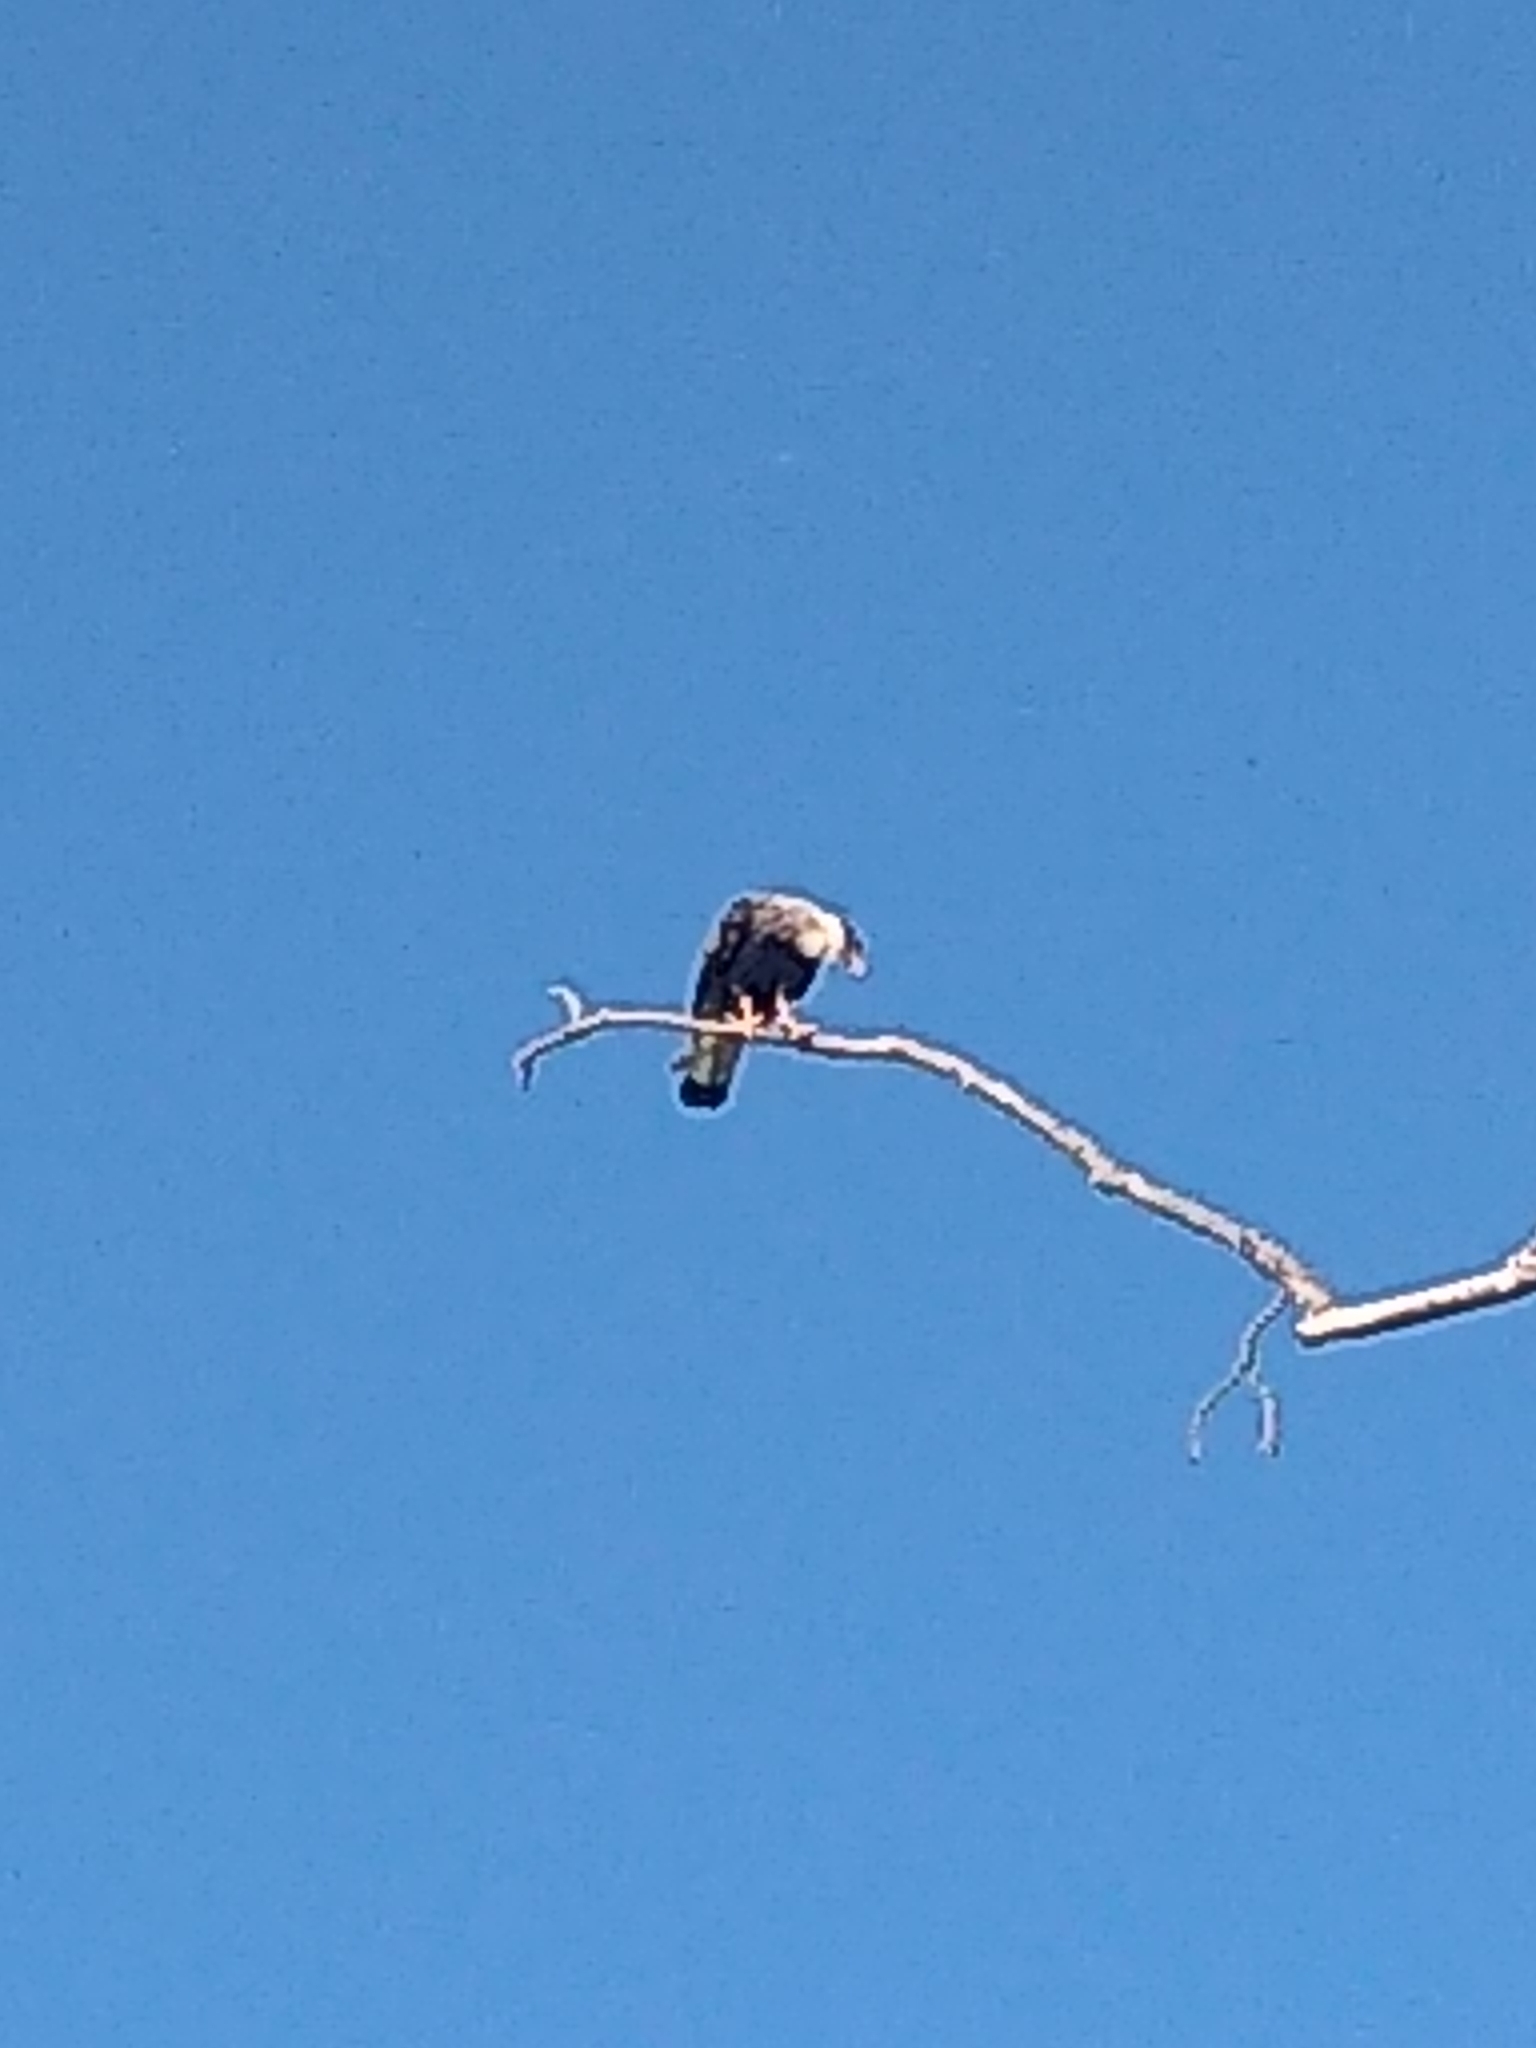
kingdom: Animalia
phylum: Chordata
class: Aves
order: Falconiformes
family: Falconidae
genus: Caracara
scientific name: Caracara plancus
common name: Southern caracara
